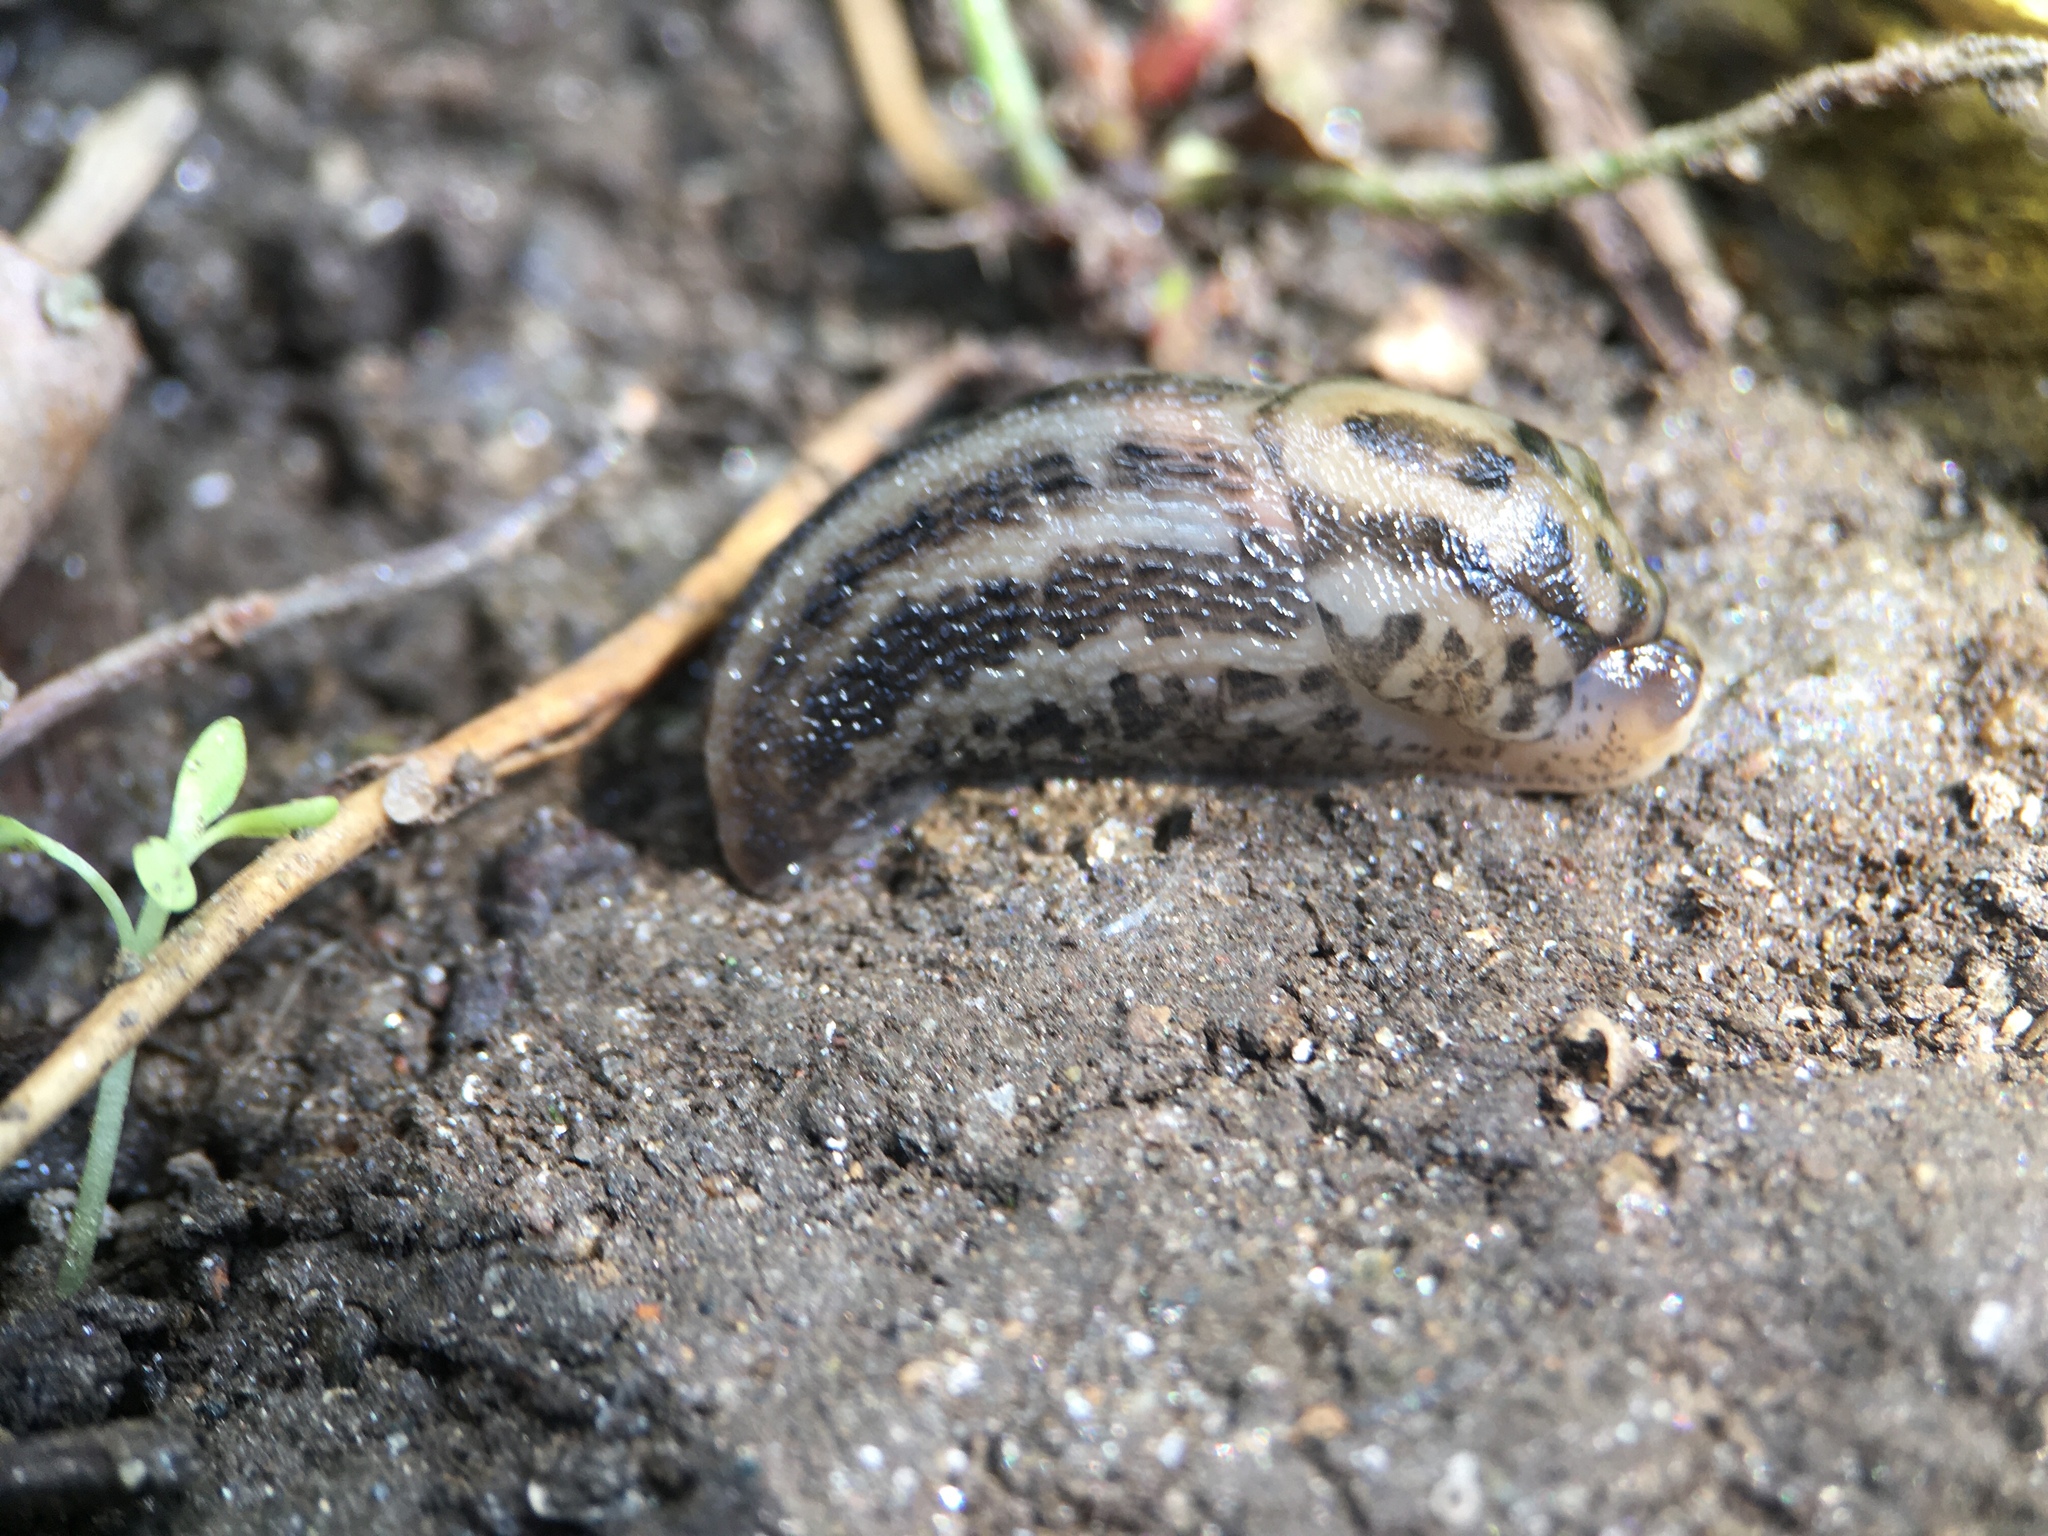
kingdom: Animalia
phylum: Mollusca
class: Gastropoda
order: Stylommatophora
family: Limacidae
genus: Limax
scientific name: Limax maximus
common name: Great grey slug
